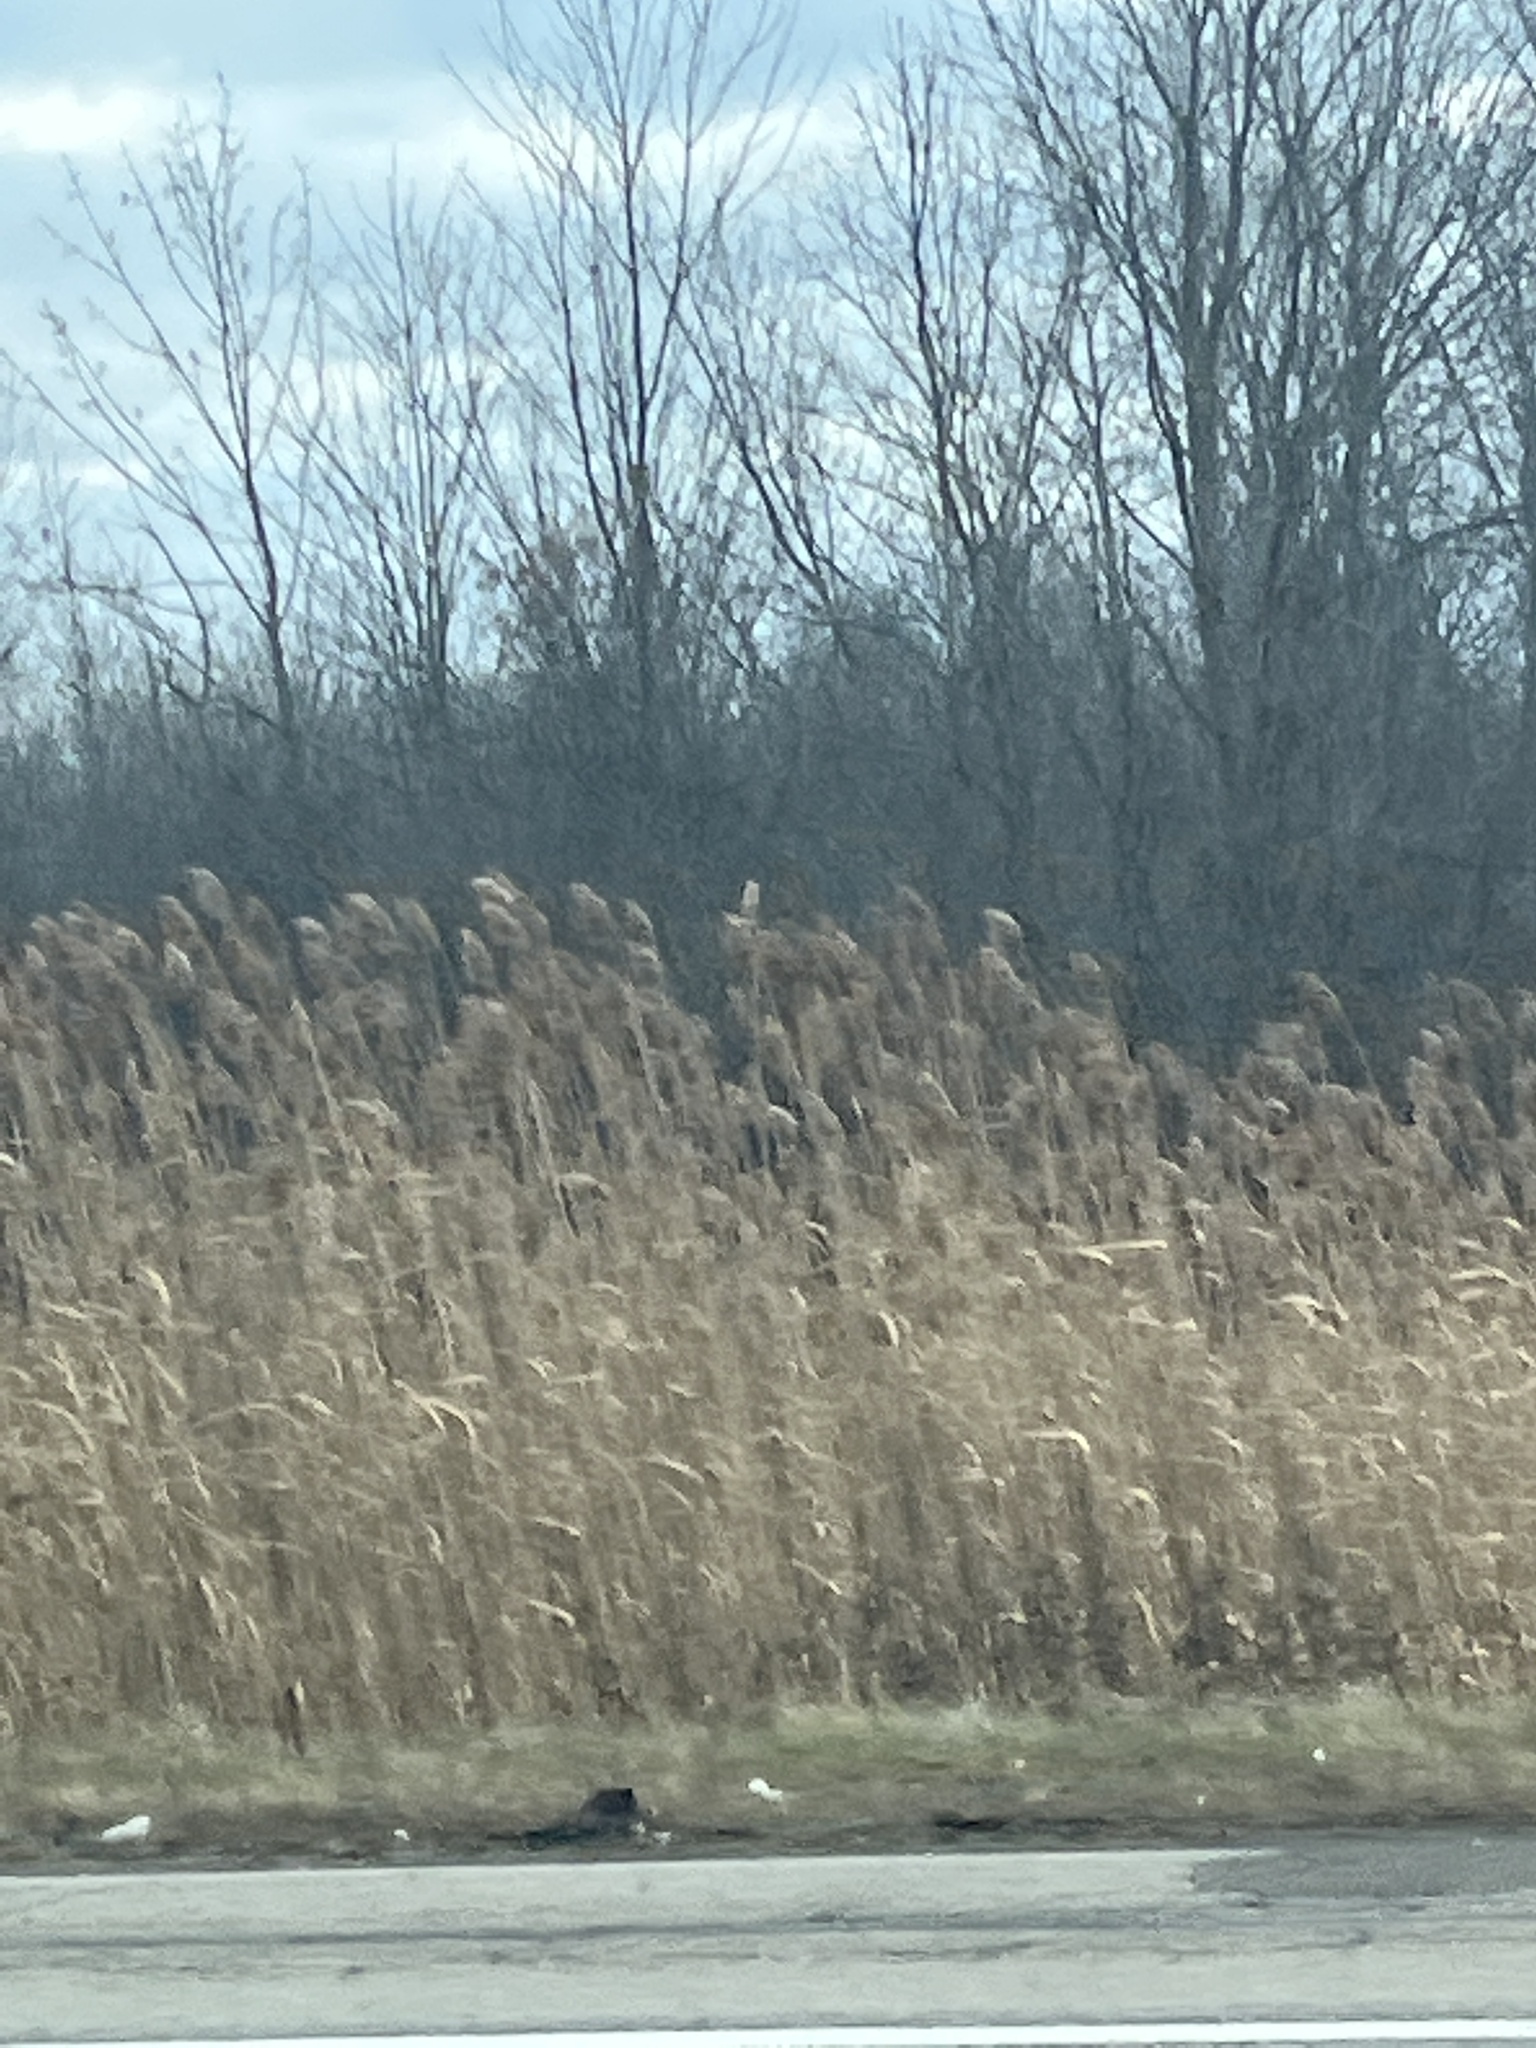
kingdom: Plantae
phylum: Tracheophyta
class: Liliopsida
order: Poales
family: Poaceae
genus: Phragmites
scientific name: Phragmites australis
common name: Common reed
